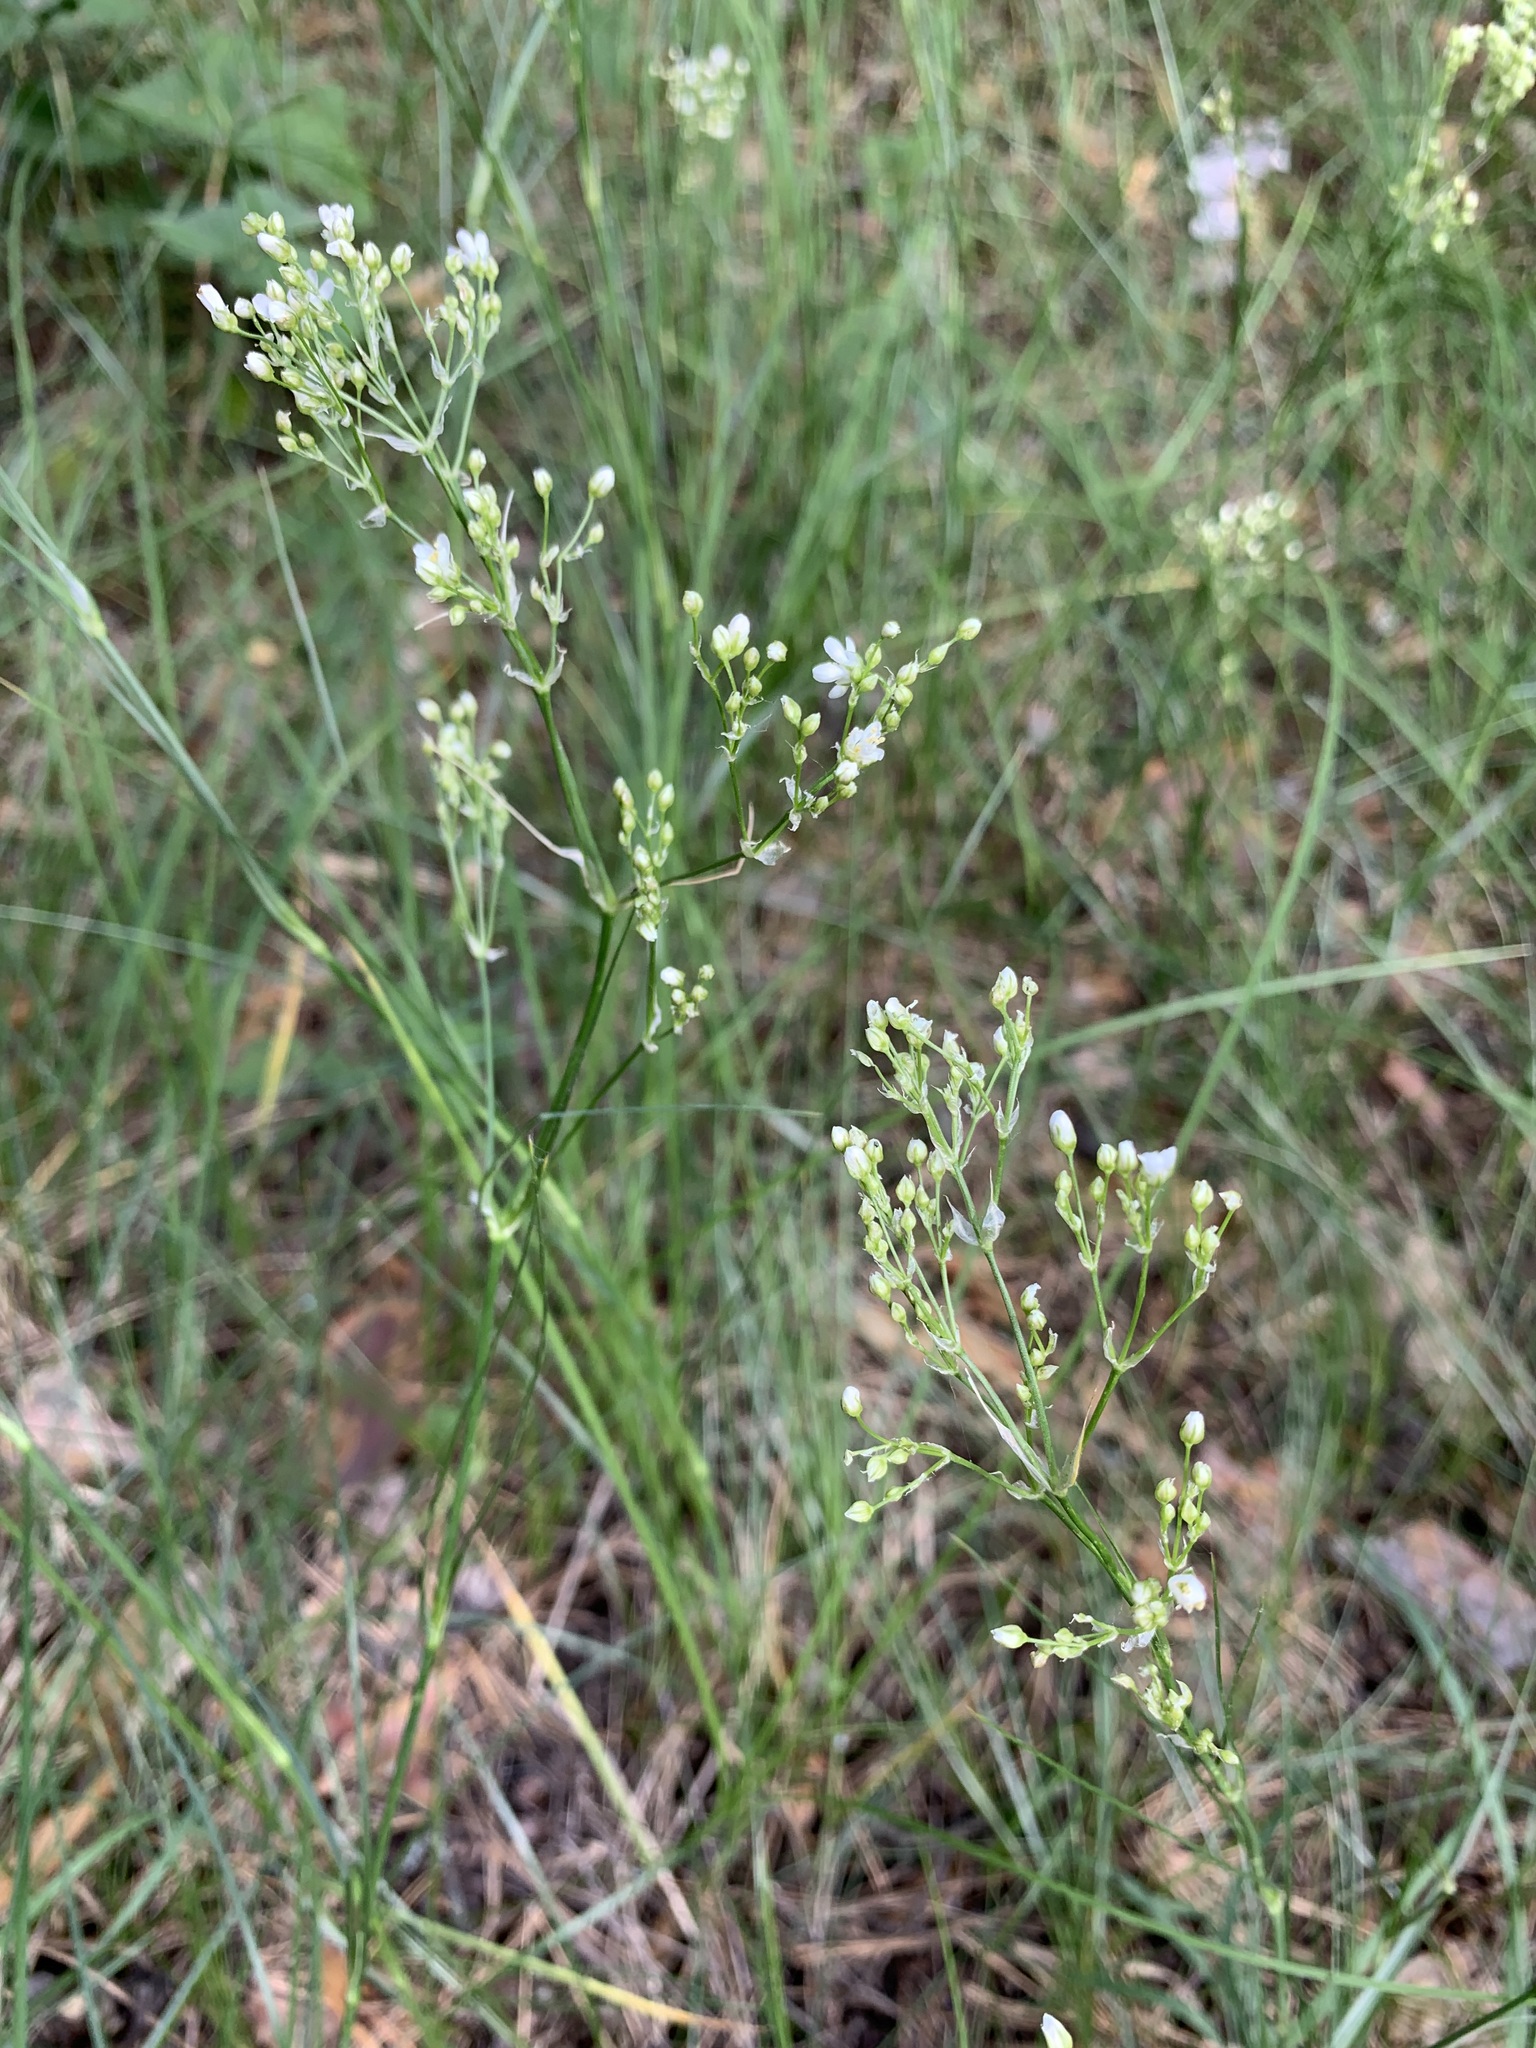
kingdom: Plantae
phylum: Tracheophyta
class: Magnoliopsida
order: Caryophyllales
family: Caryophyllaceae
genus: Eremogone
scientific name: Eremogone longifolia
